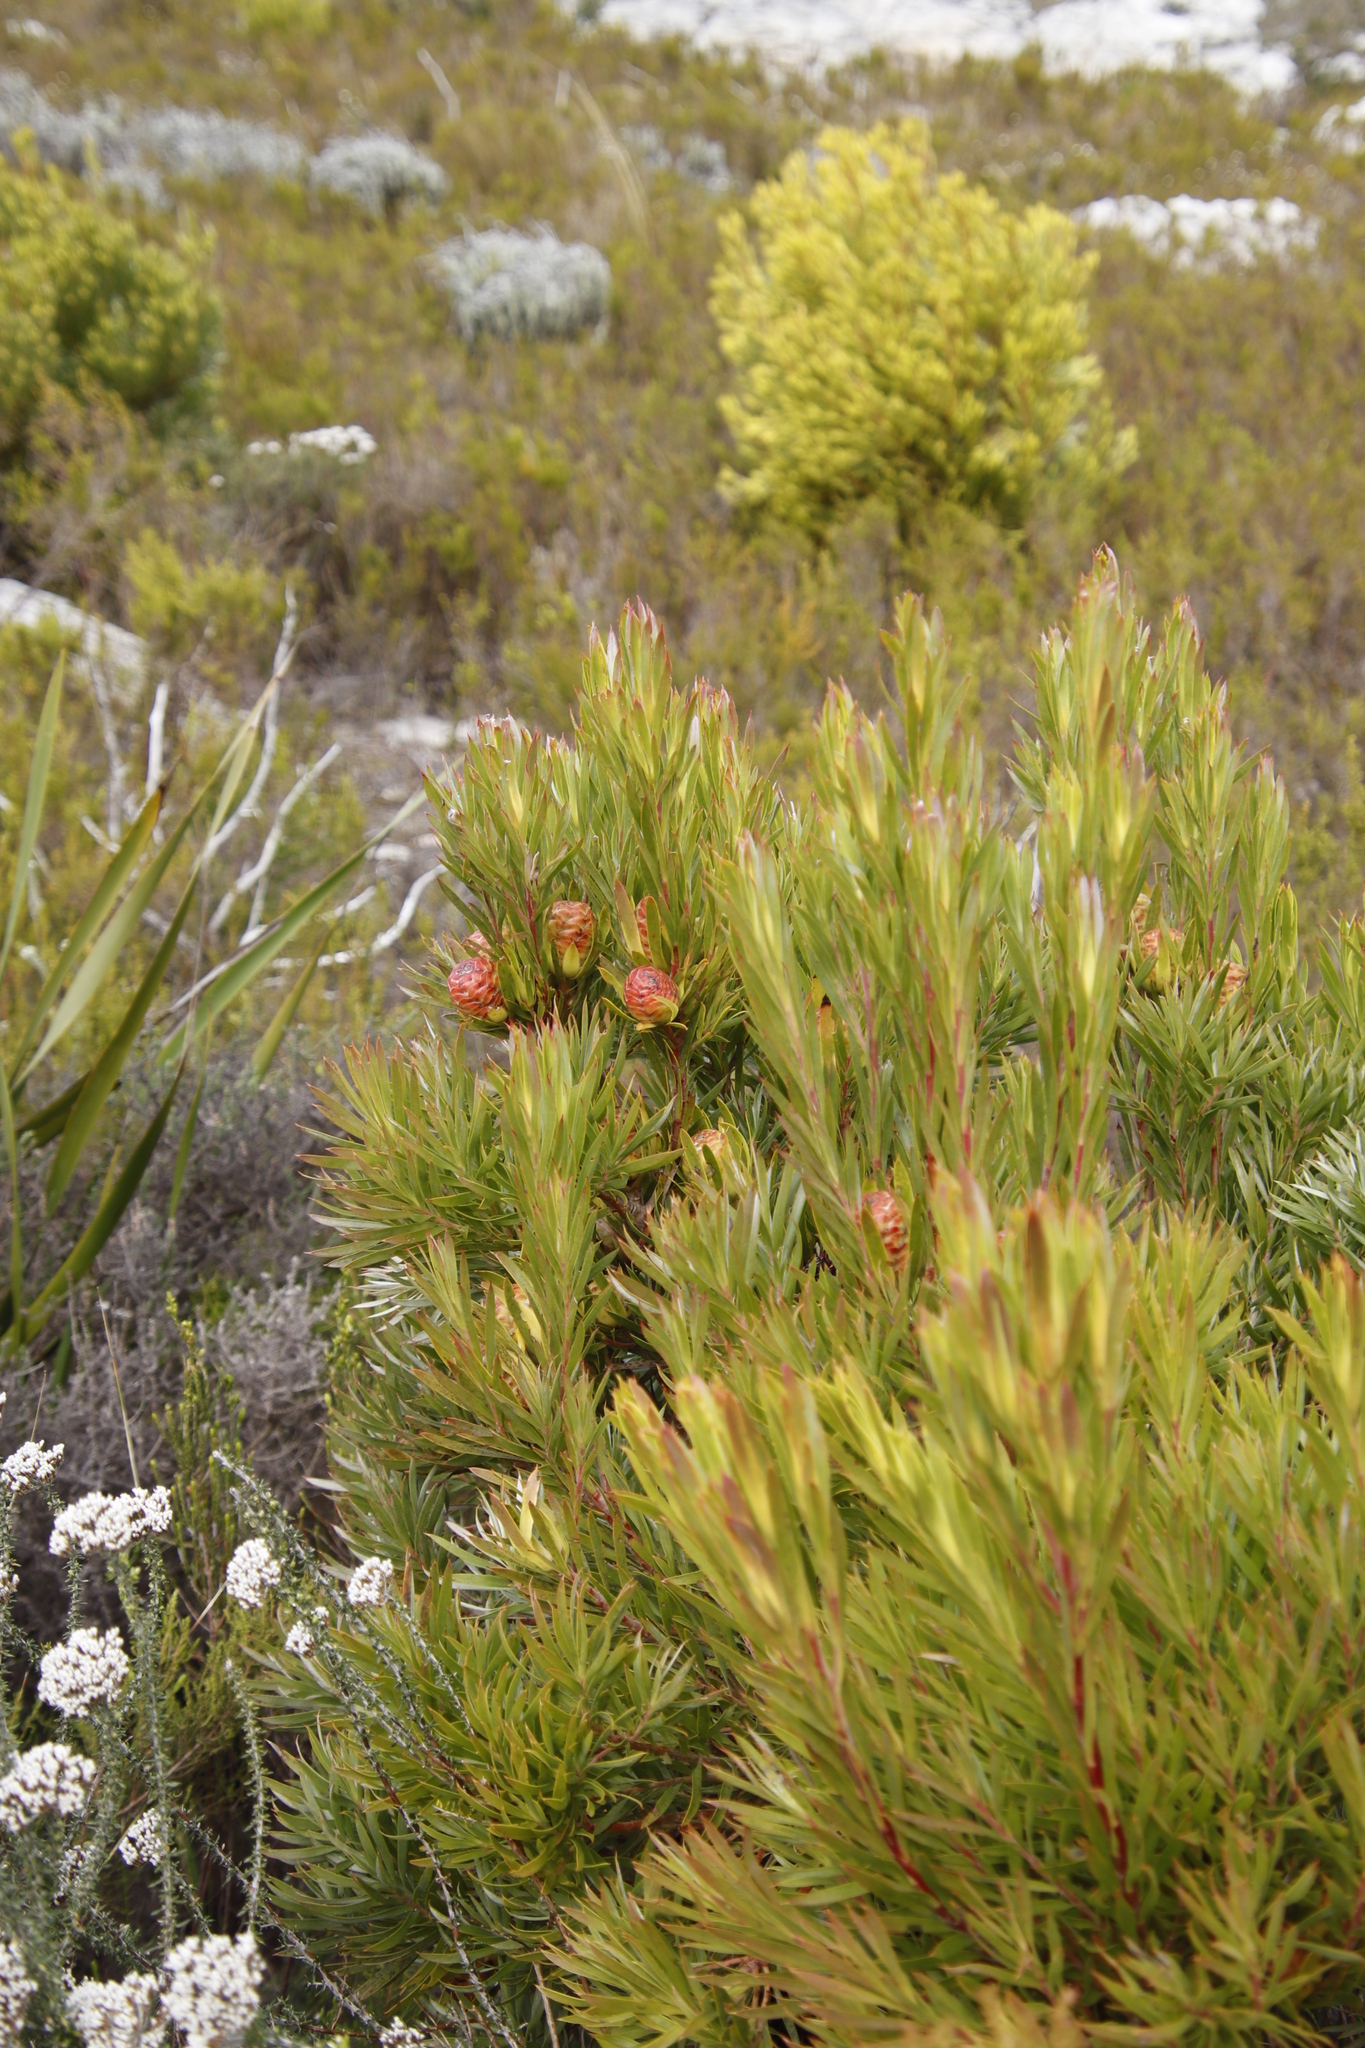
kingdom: Plantae
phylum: Tracheophyta
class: Magnoliopsida
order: Proteales
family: Proteaceae
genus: Leucadendron
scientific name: Leucadendron xanthoconus
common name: Sickle-leaf conebush
